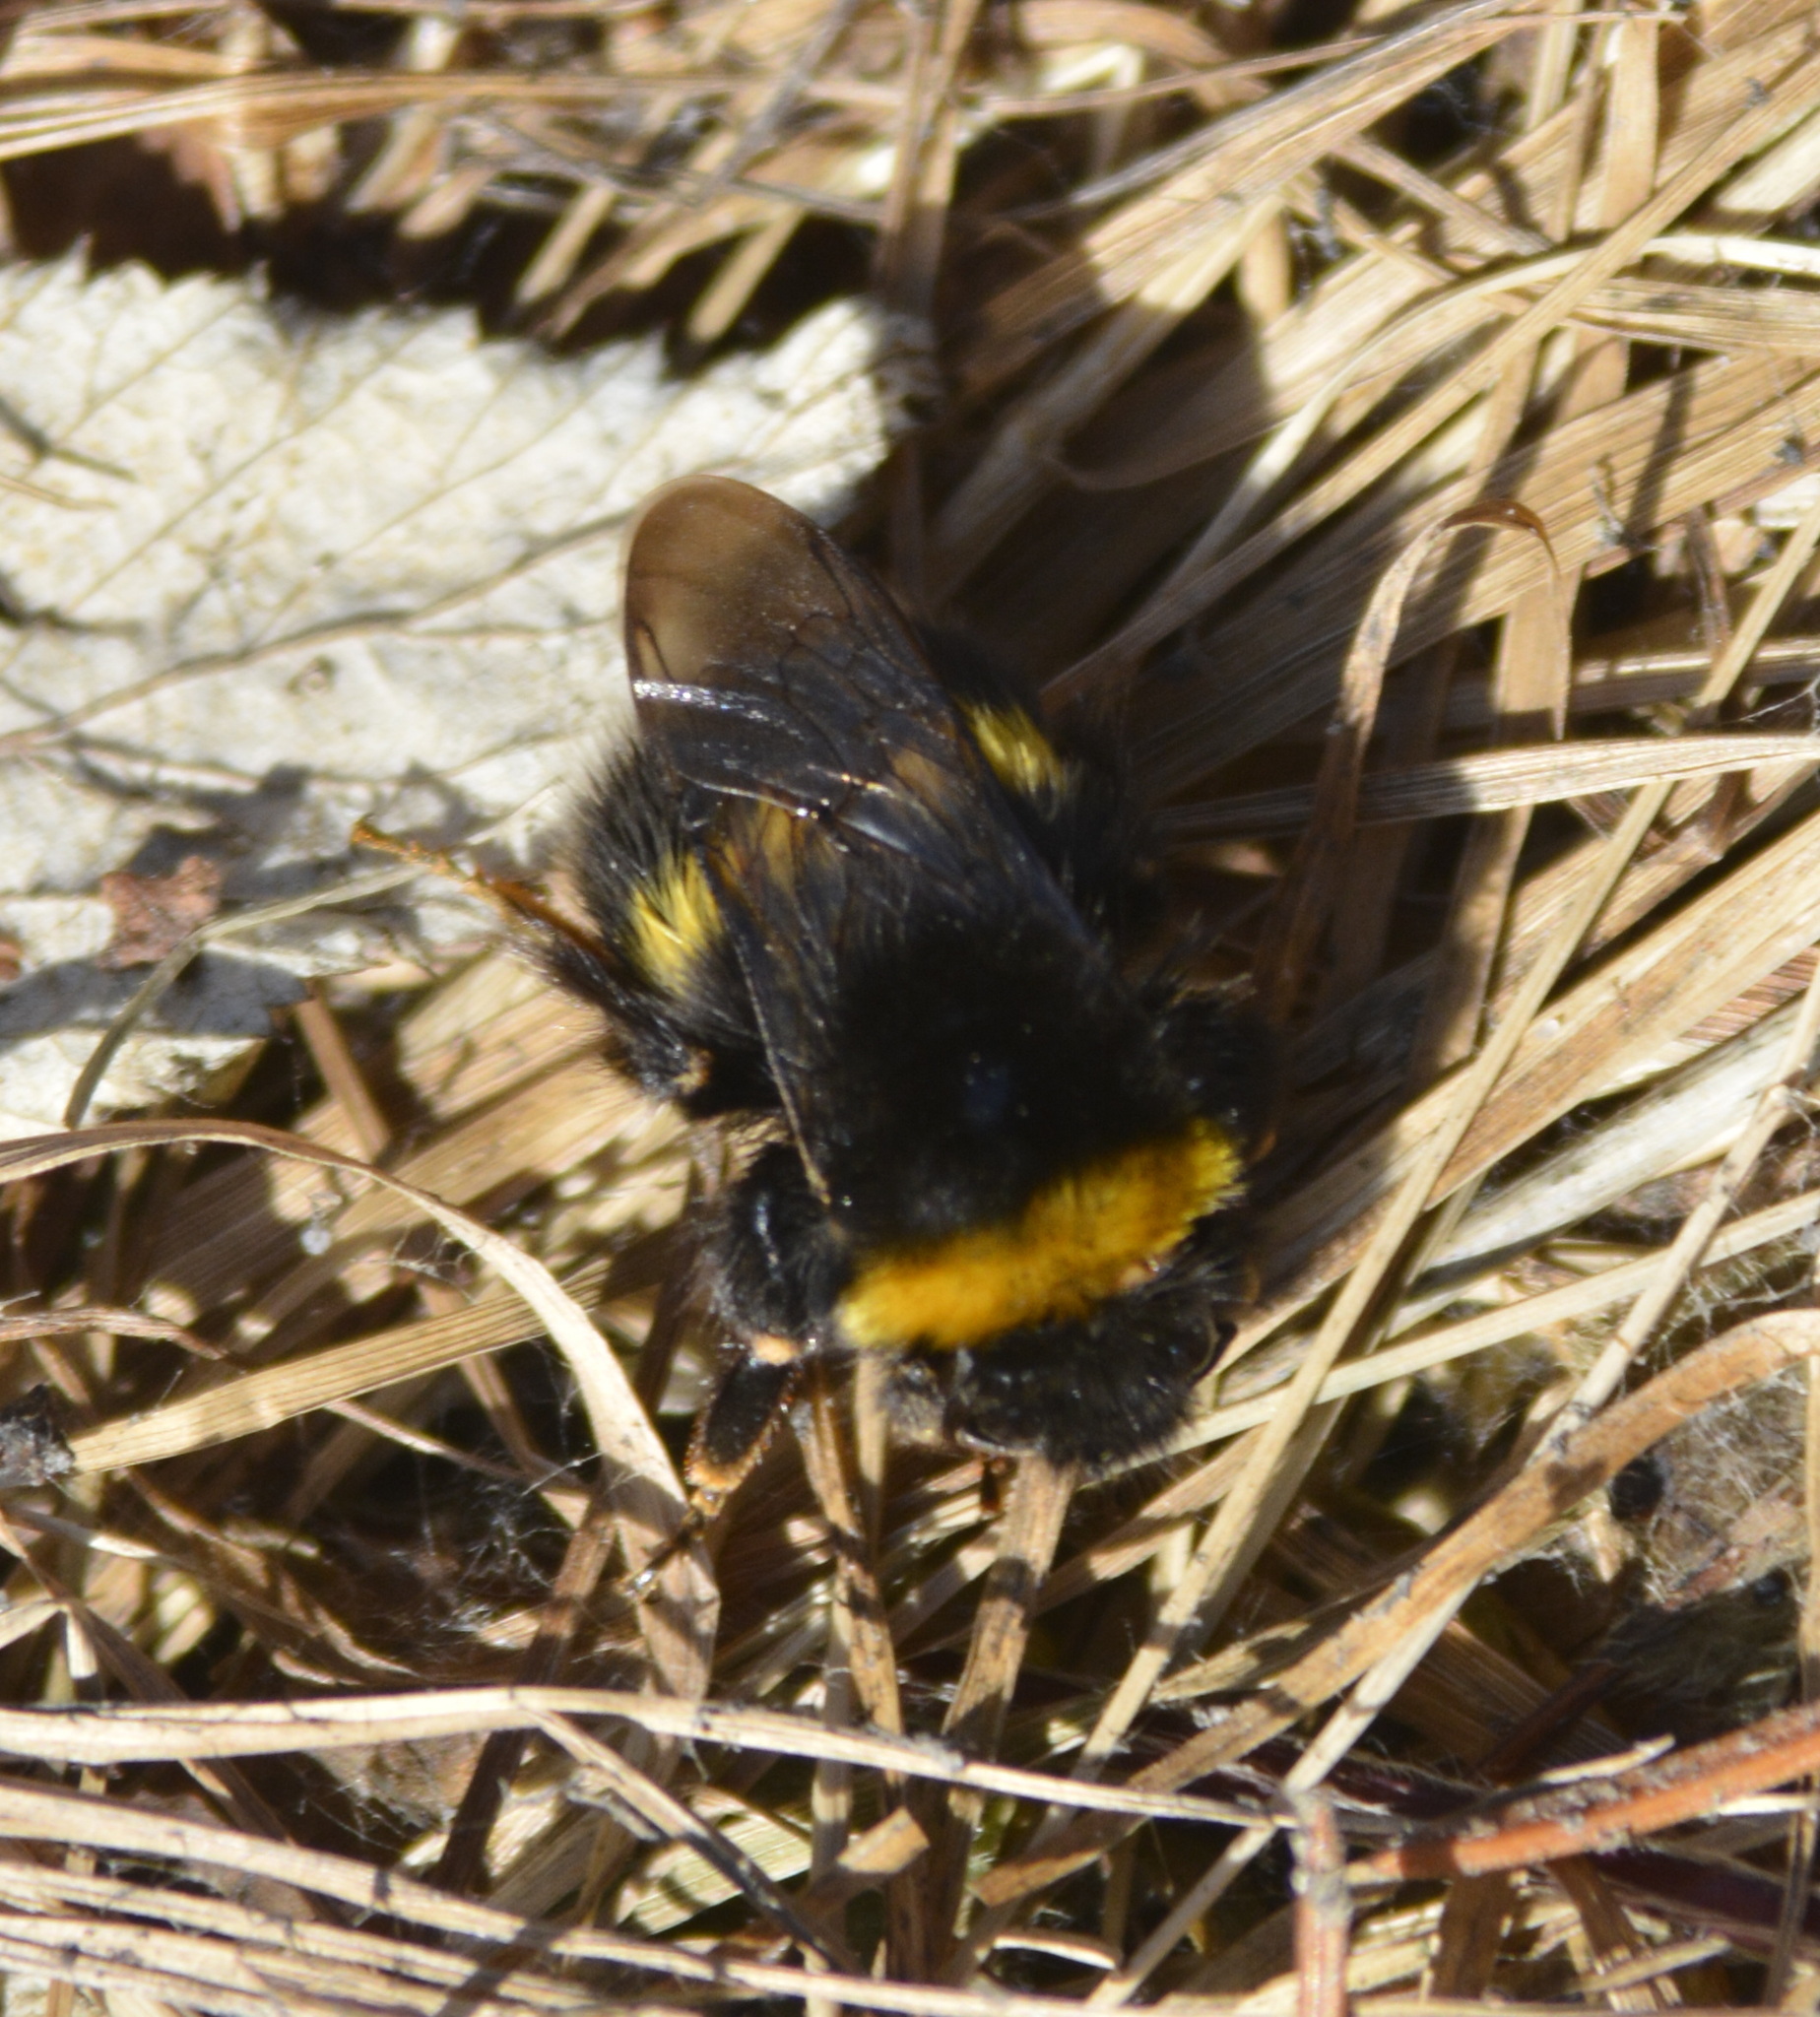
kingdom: Animalia
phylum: Arthropoda
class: Insecta
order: Hymenoptera
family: Apidae
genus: Bombus
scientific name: Bombus
